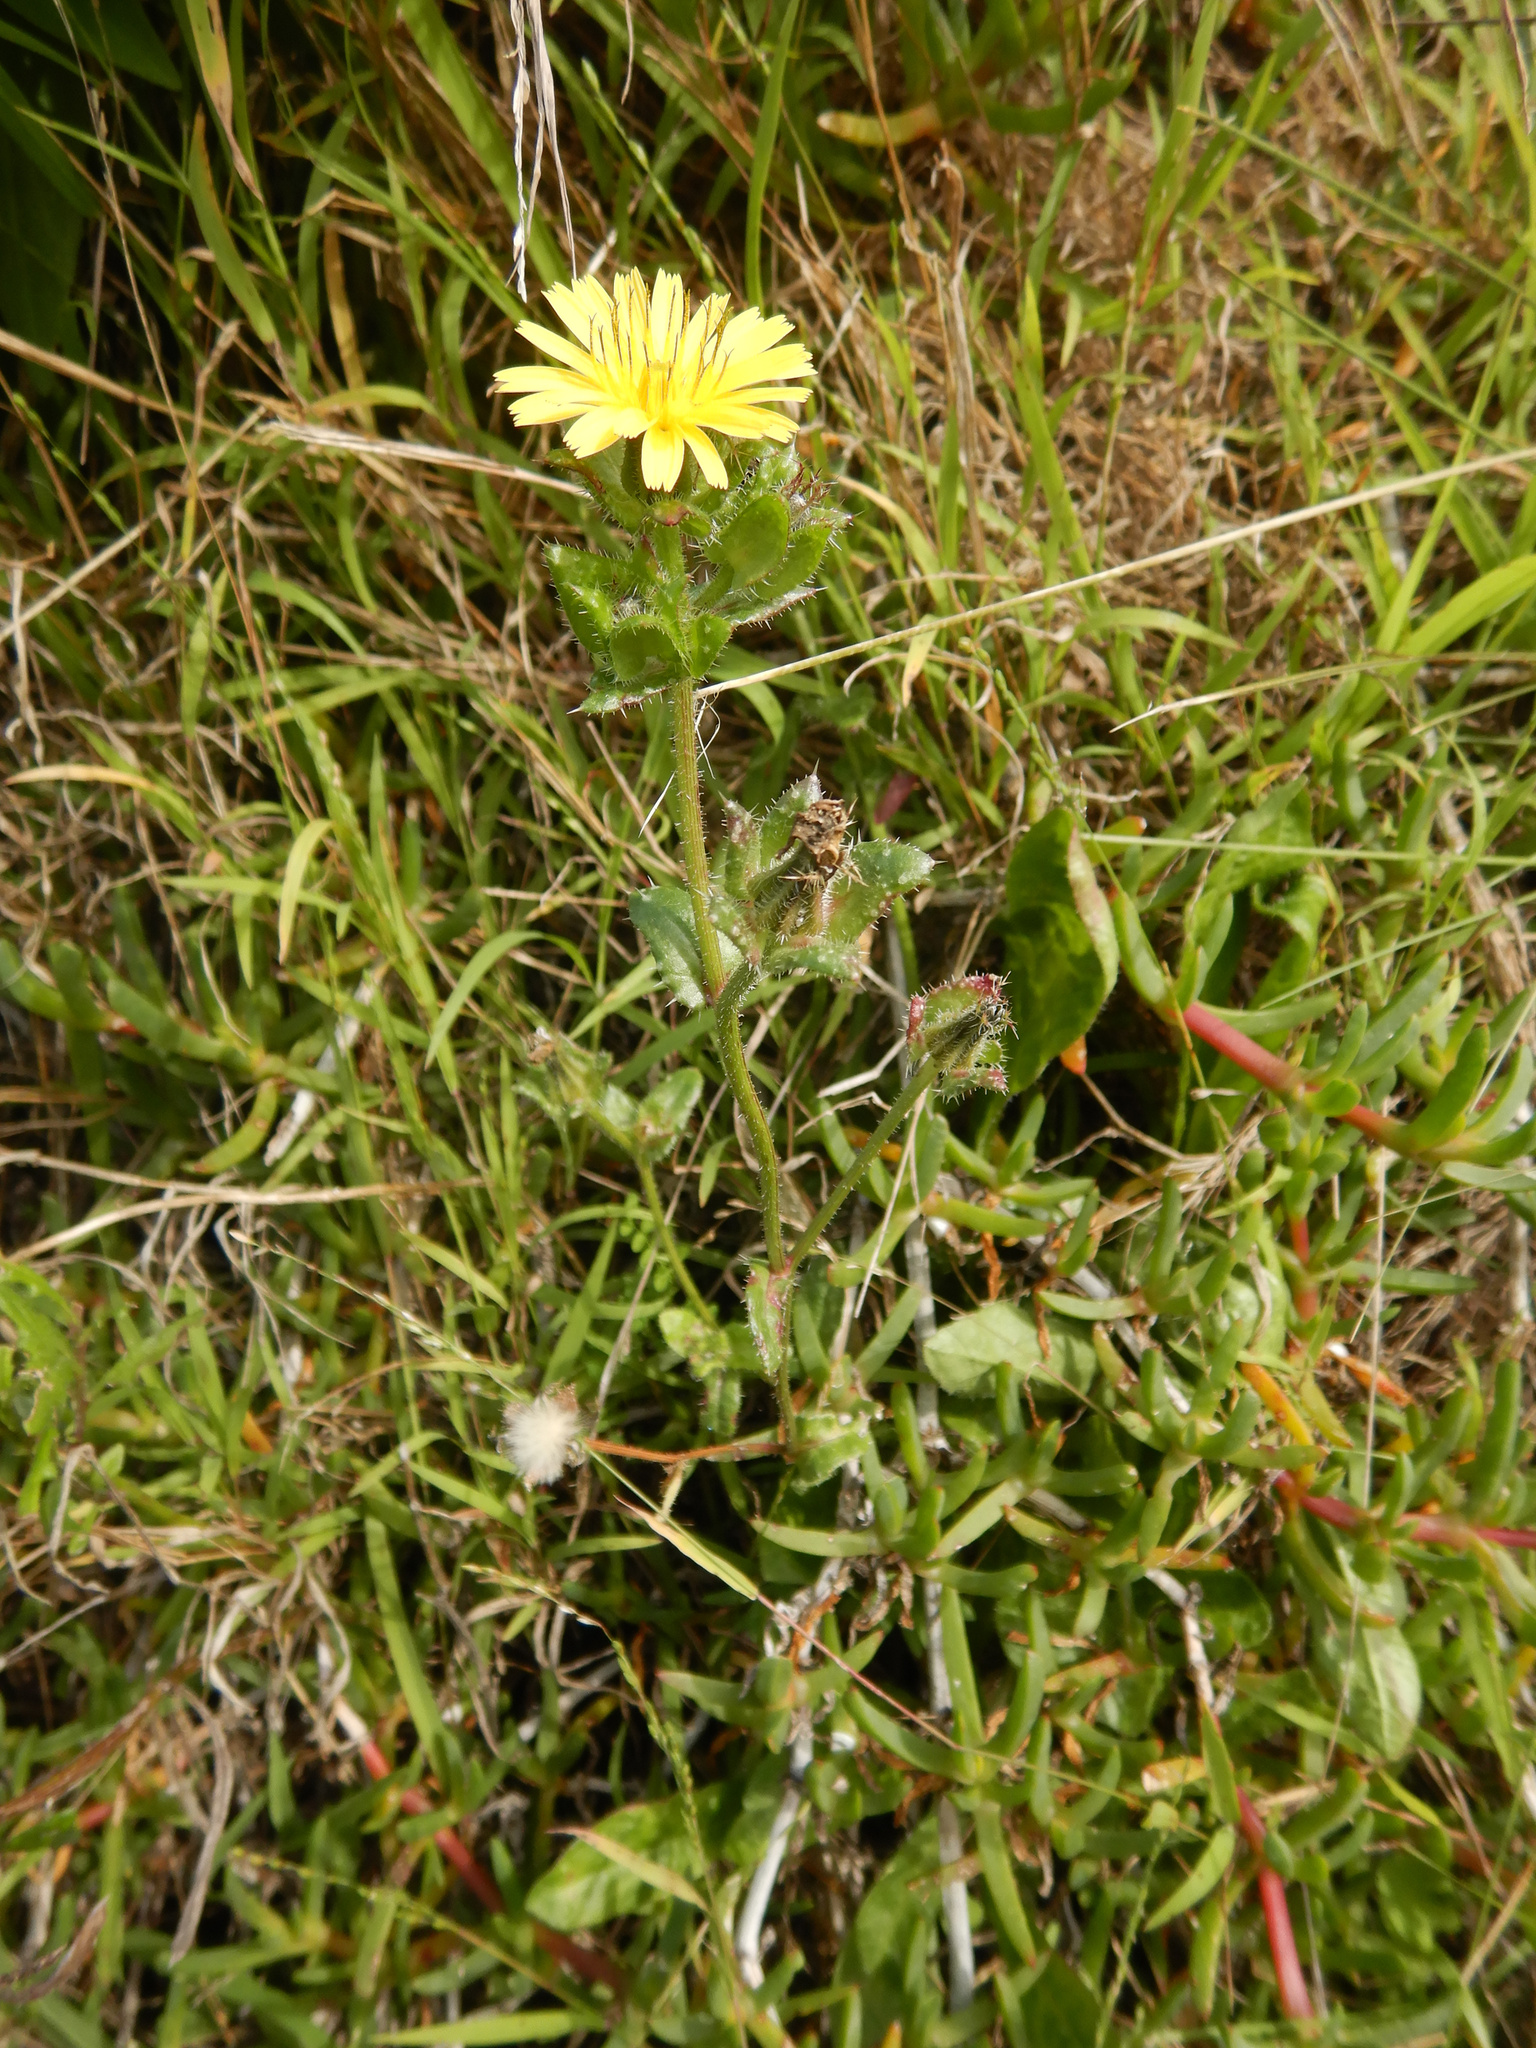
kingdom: Plantae
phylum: Tracheophyta
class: Magnoliopsida
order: Asterales
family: Asteraceae
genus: Helminthotheca
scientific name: Helminthotheca echioides
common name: Ox-tongue
